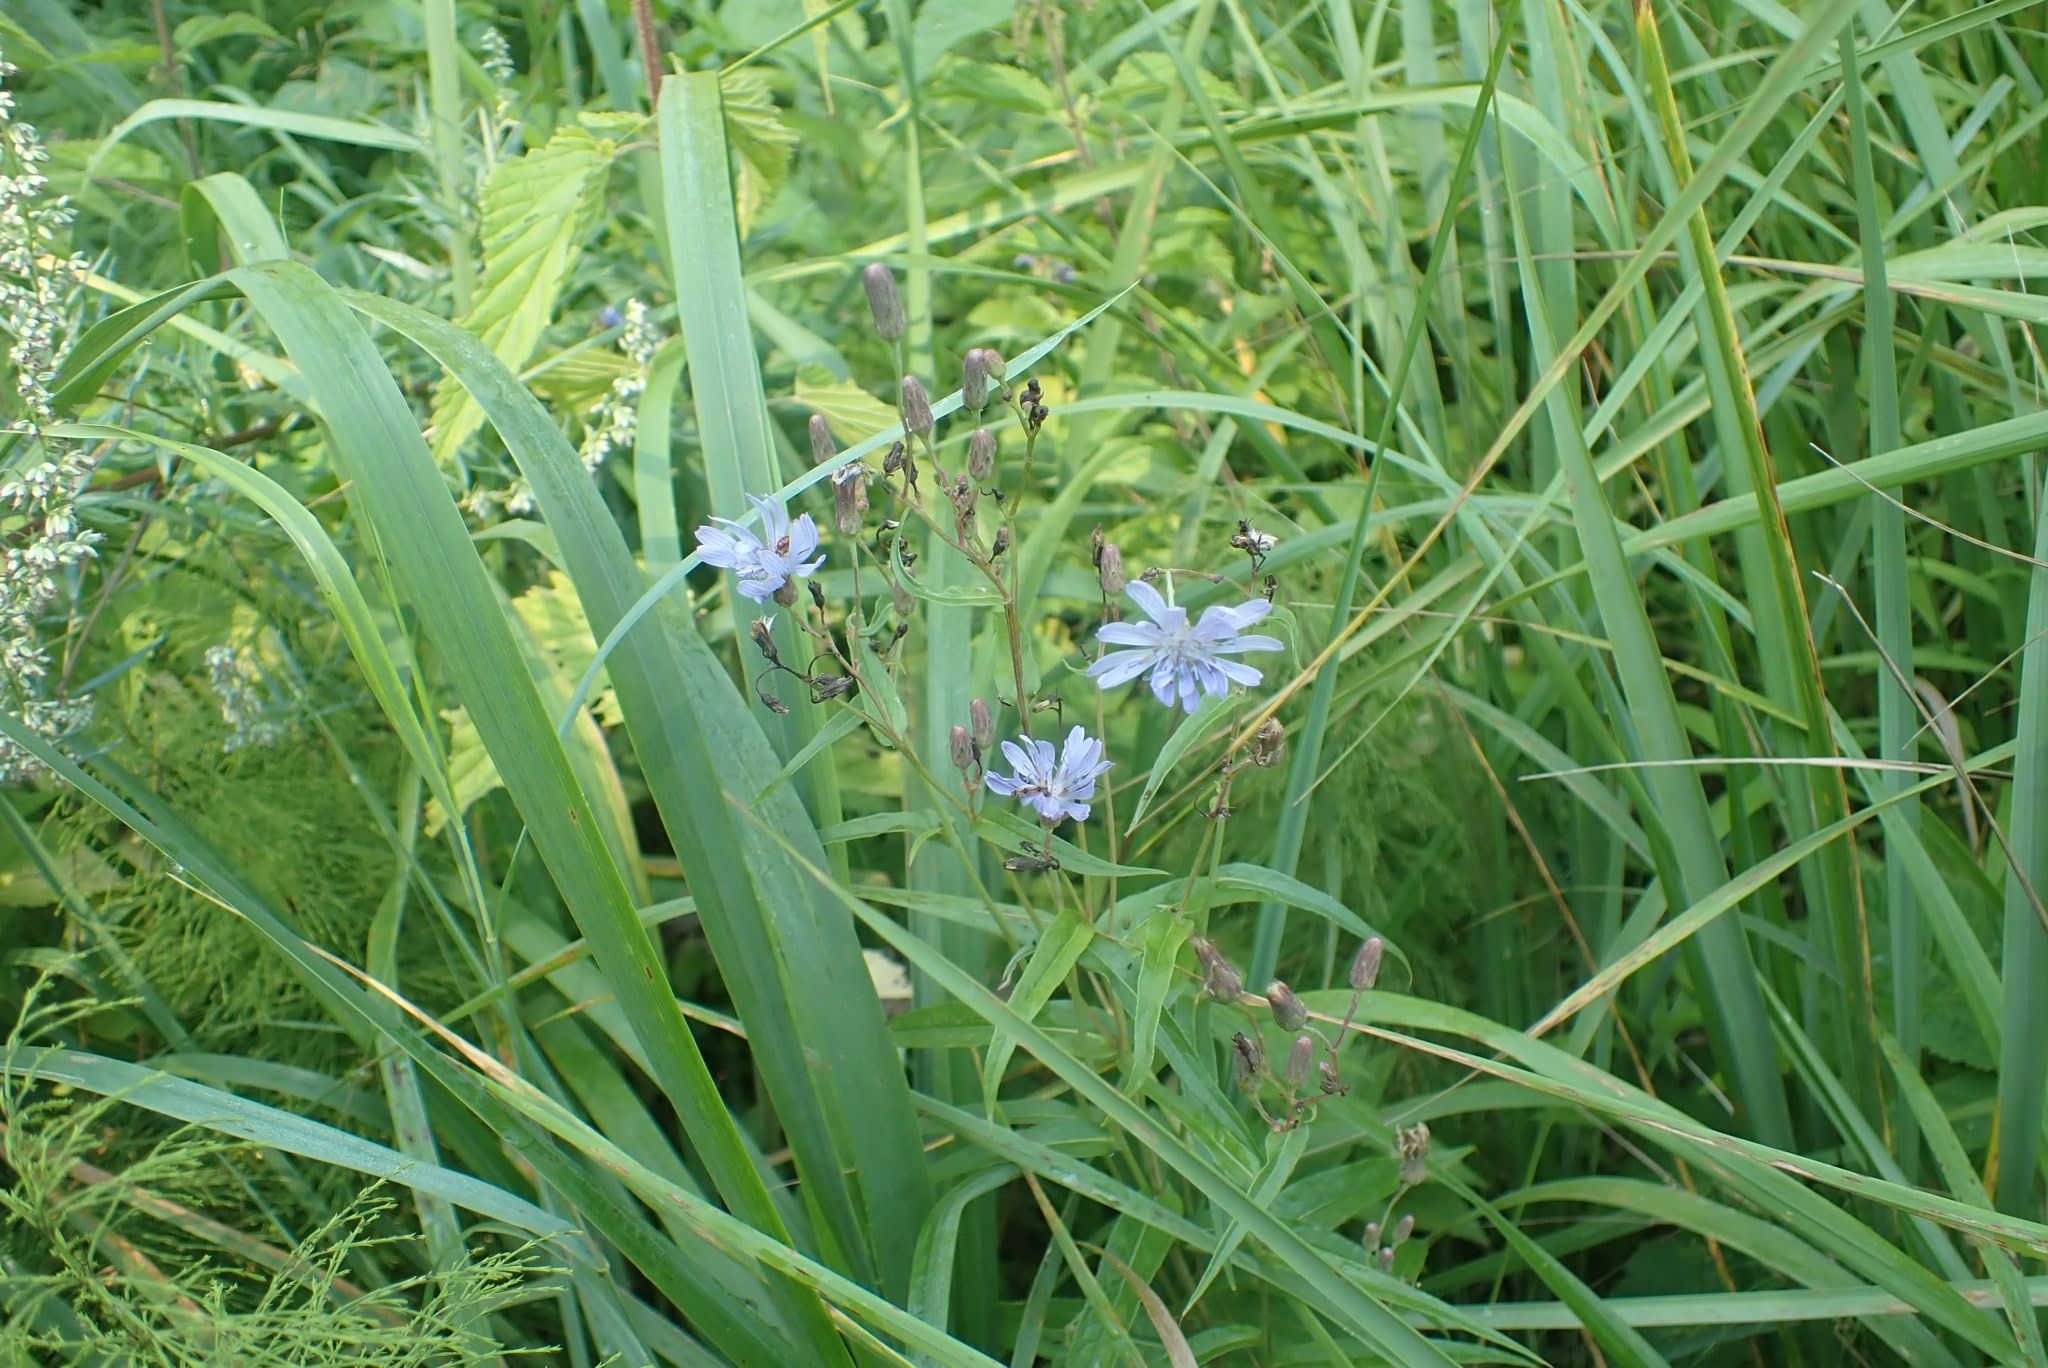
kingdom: Plantae
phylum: Tracheophyta
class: Magnoliopsida
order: Asterales
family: Asteraceae
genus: Lactuca
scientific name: Lactuca sibirica
